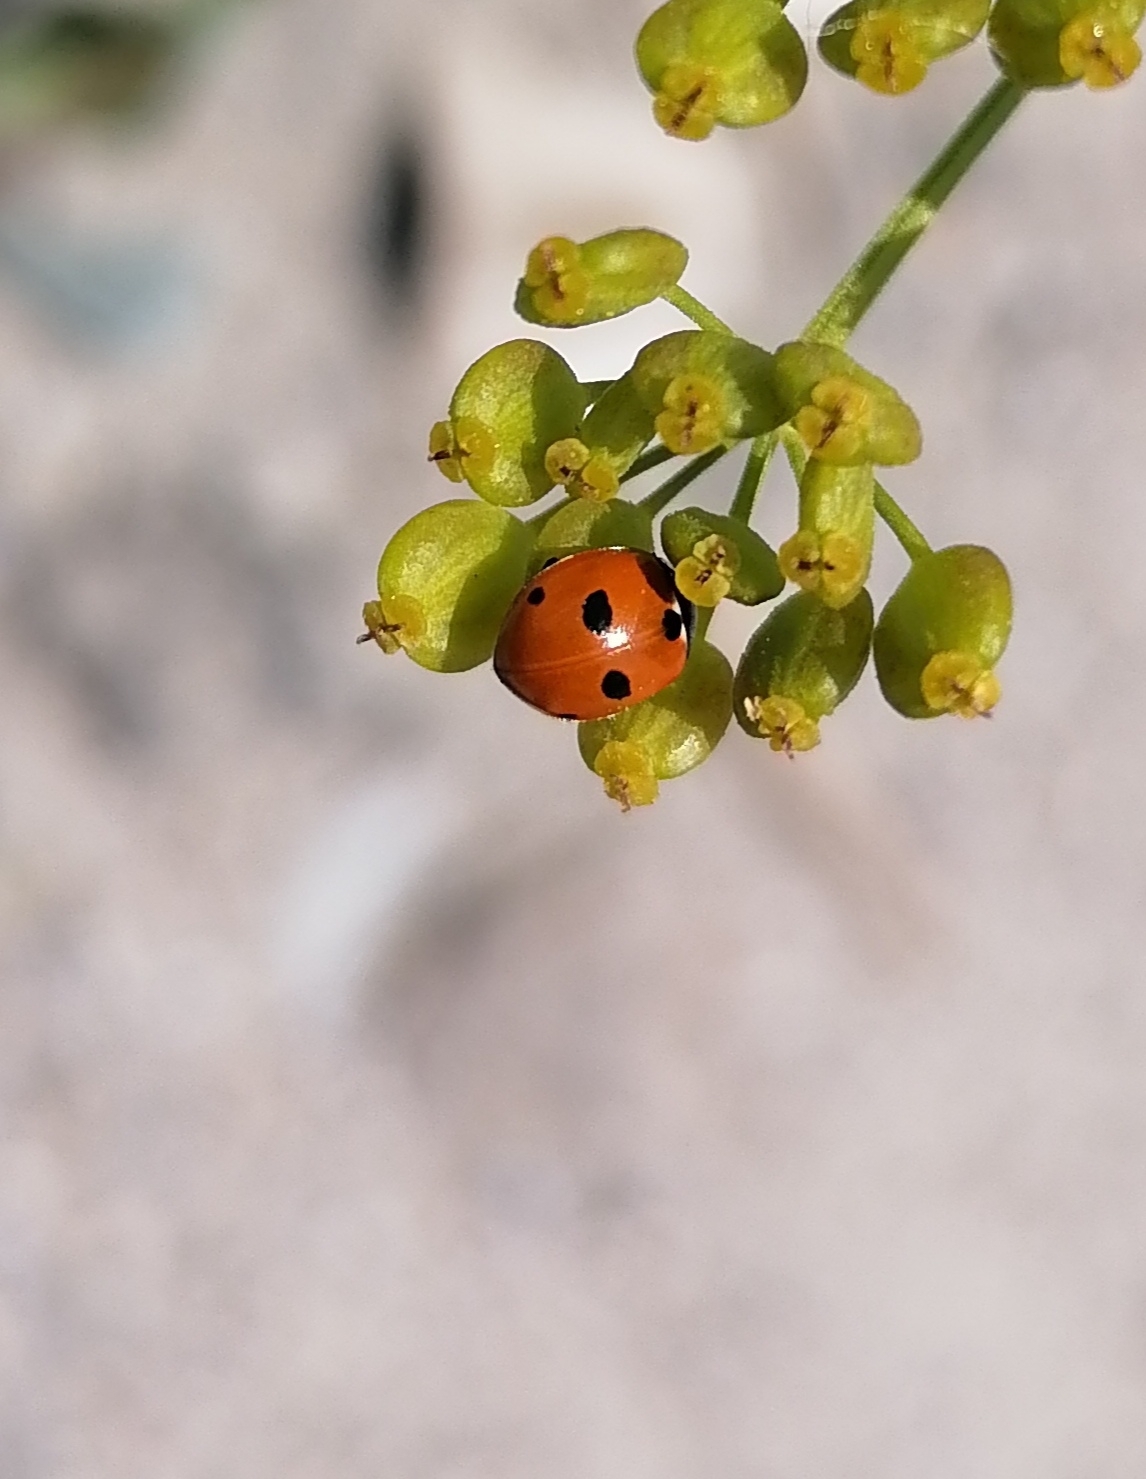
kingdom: Animalia
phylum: Arthropoda
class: Insecta
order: Coleoptera
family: Coccinellidae
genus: Coccinella
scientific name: Coccinella quinquepunctata
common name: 5-spot ladybird
